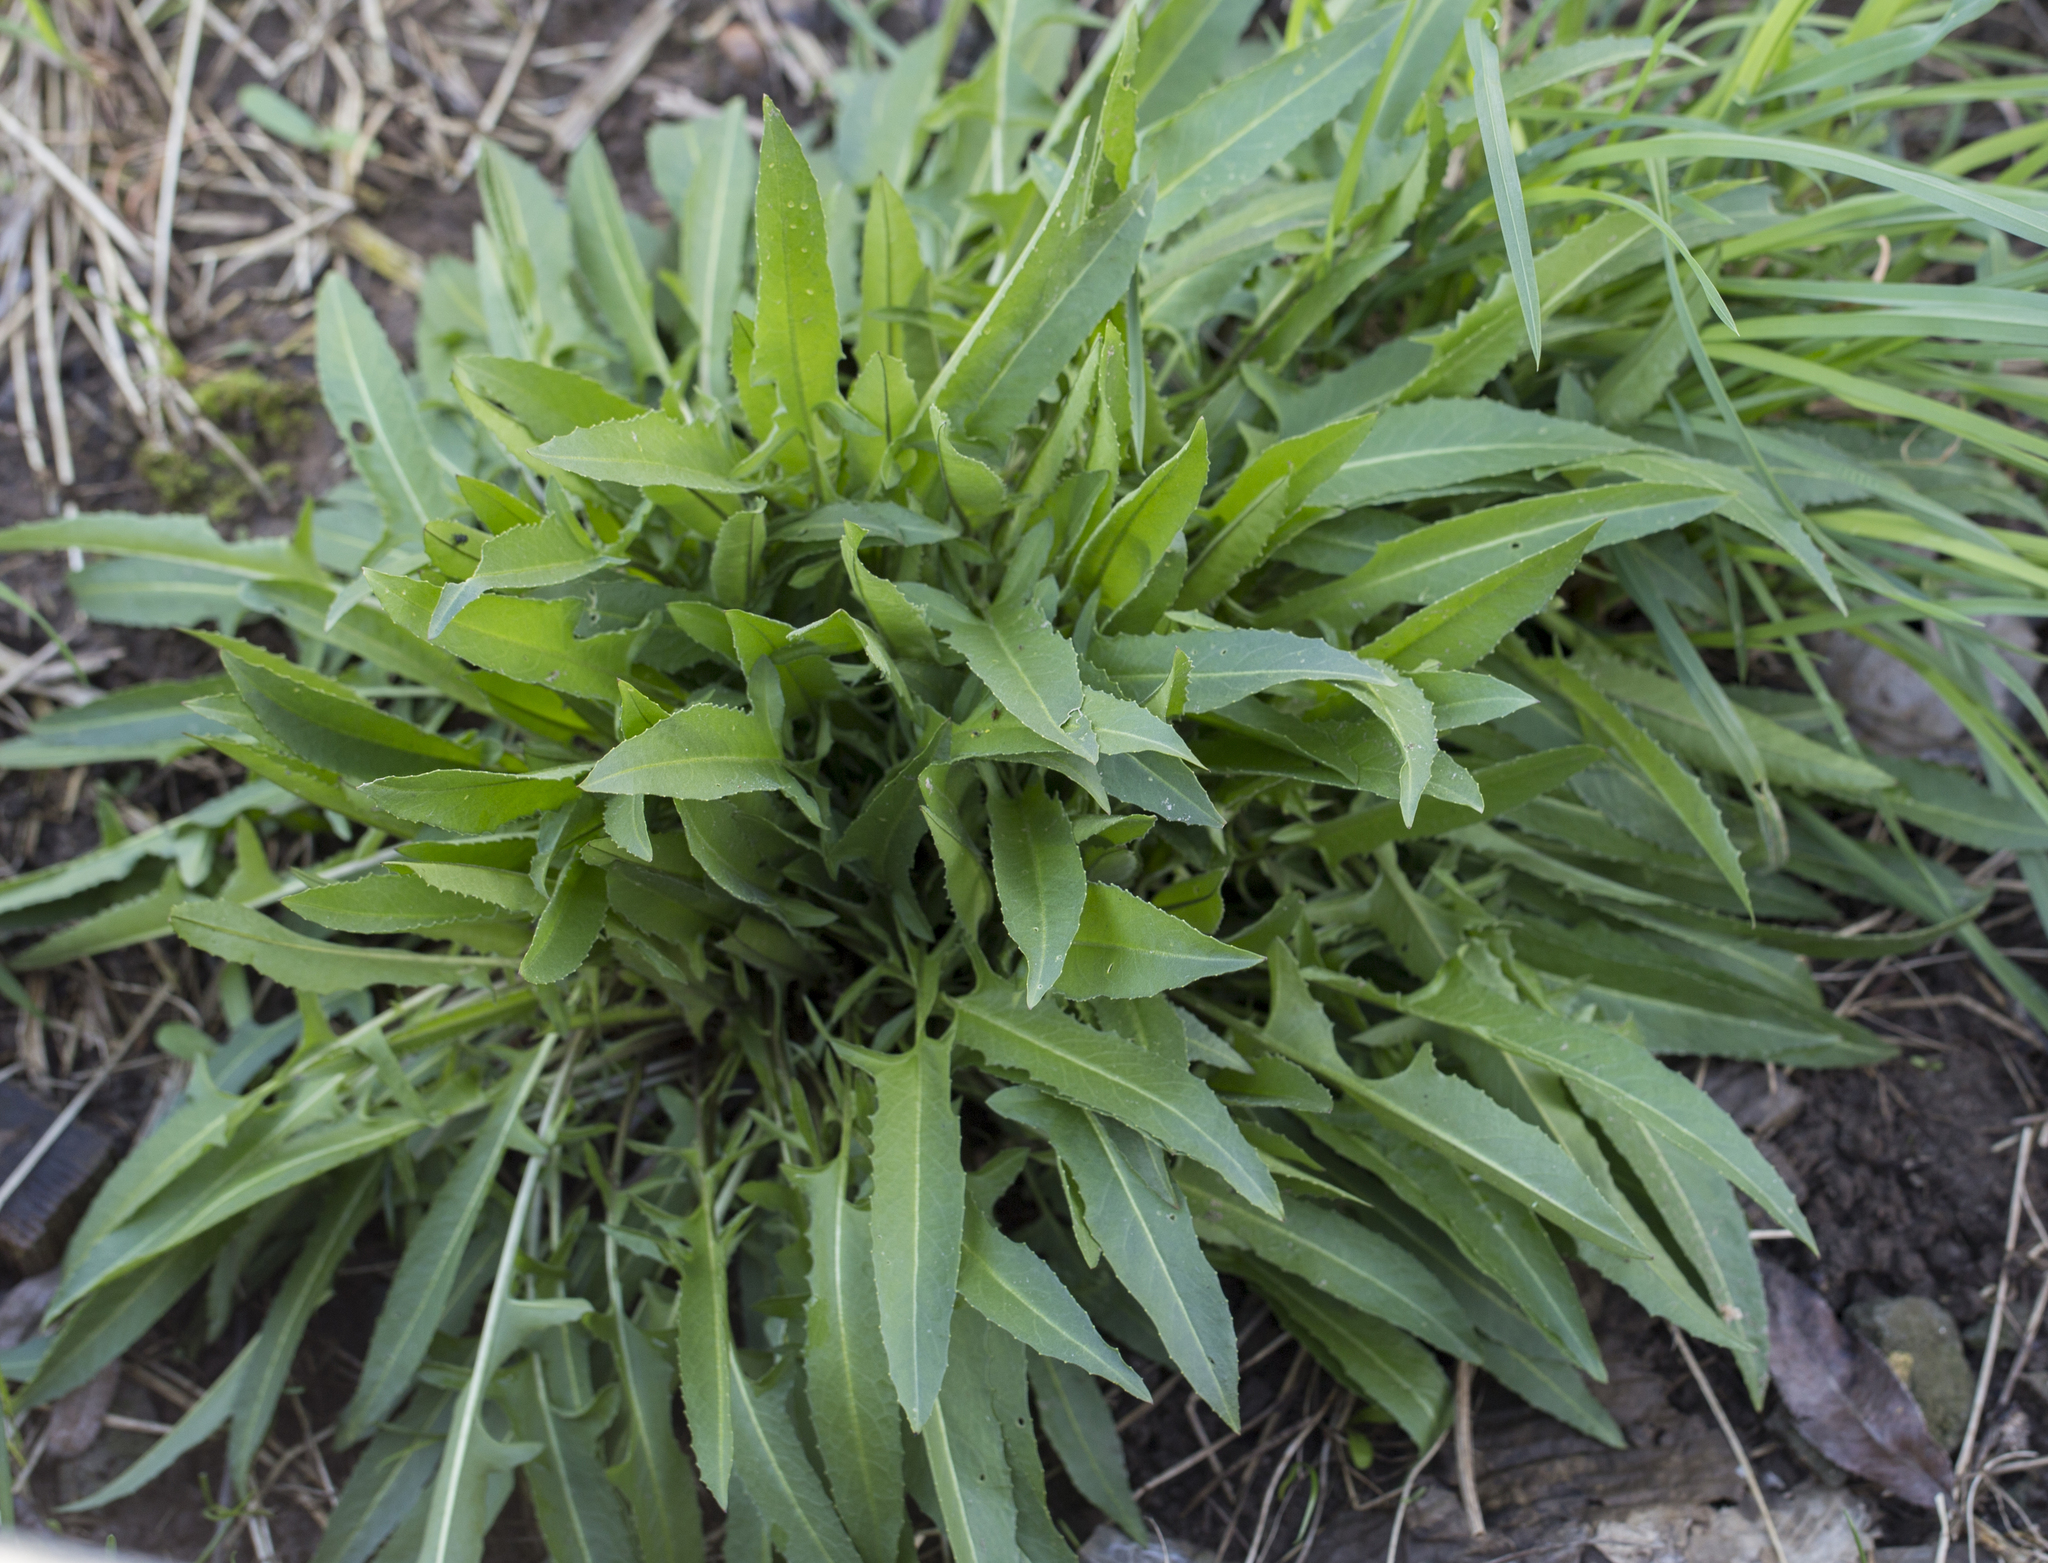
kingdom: Plantae
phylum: Tracheophyta
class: Magnoliopsida
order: Brassicales
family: Brassicaceae
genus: Bunias
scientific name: Bunias orientalis
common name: Warty-cabbage
